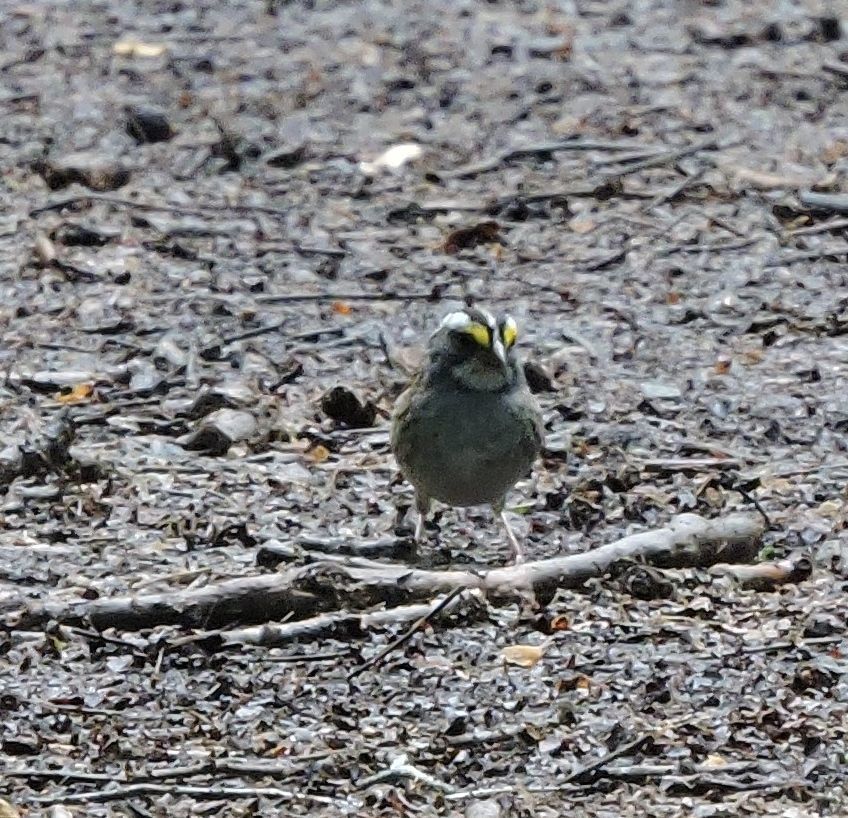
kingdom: Animalia
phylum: Chordata
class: Aves
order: Passeriformes
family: Passerellidae
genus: Zonotrichia
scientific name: Zonotrichia albicollis
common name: White-throated sparrow
